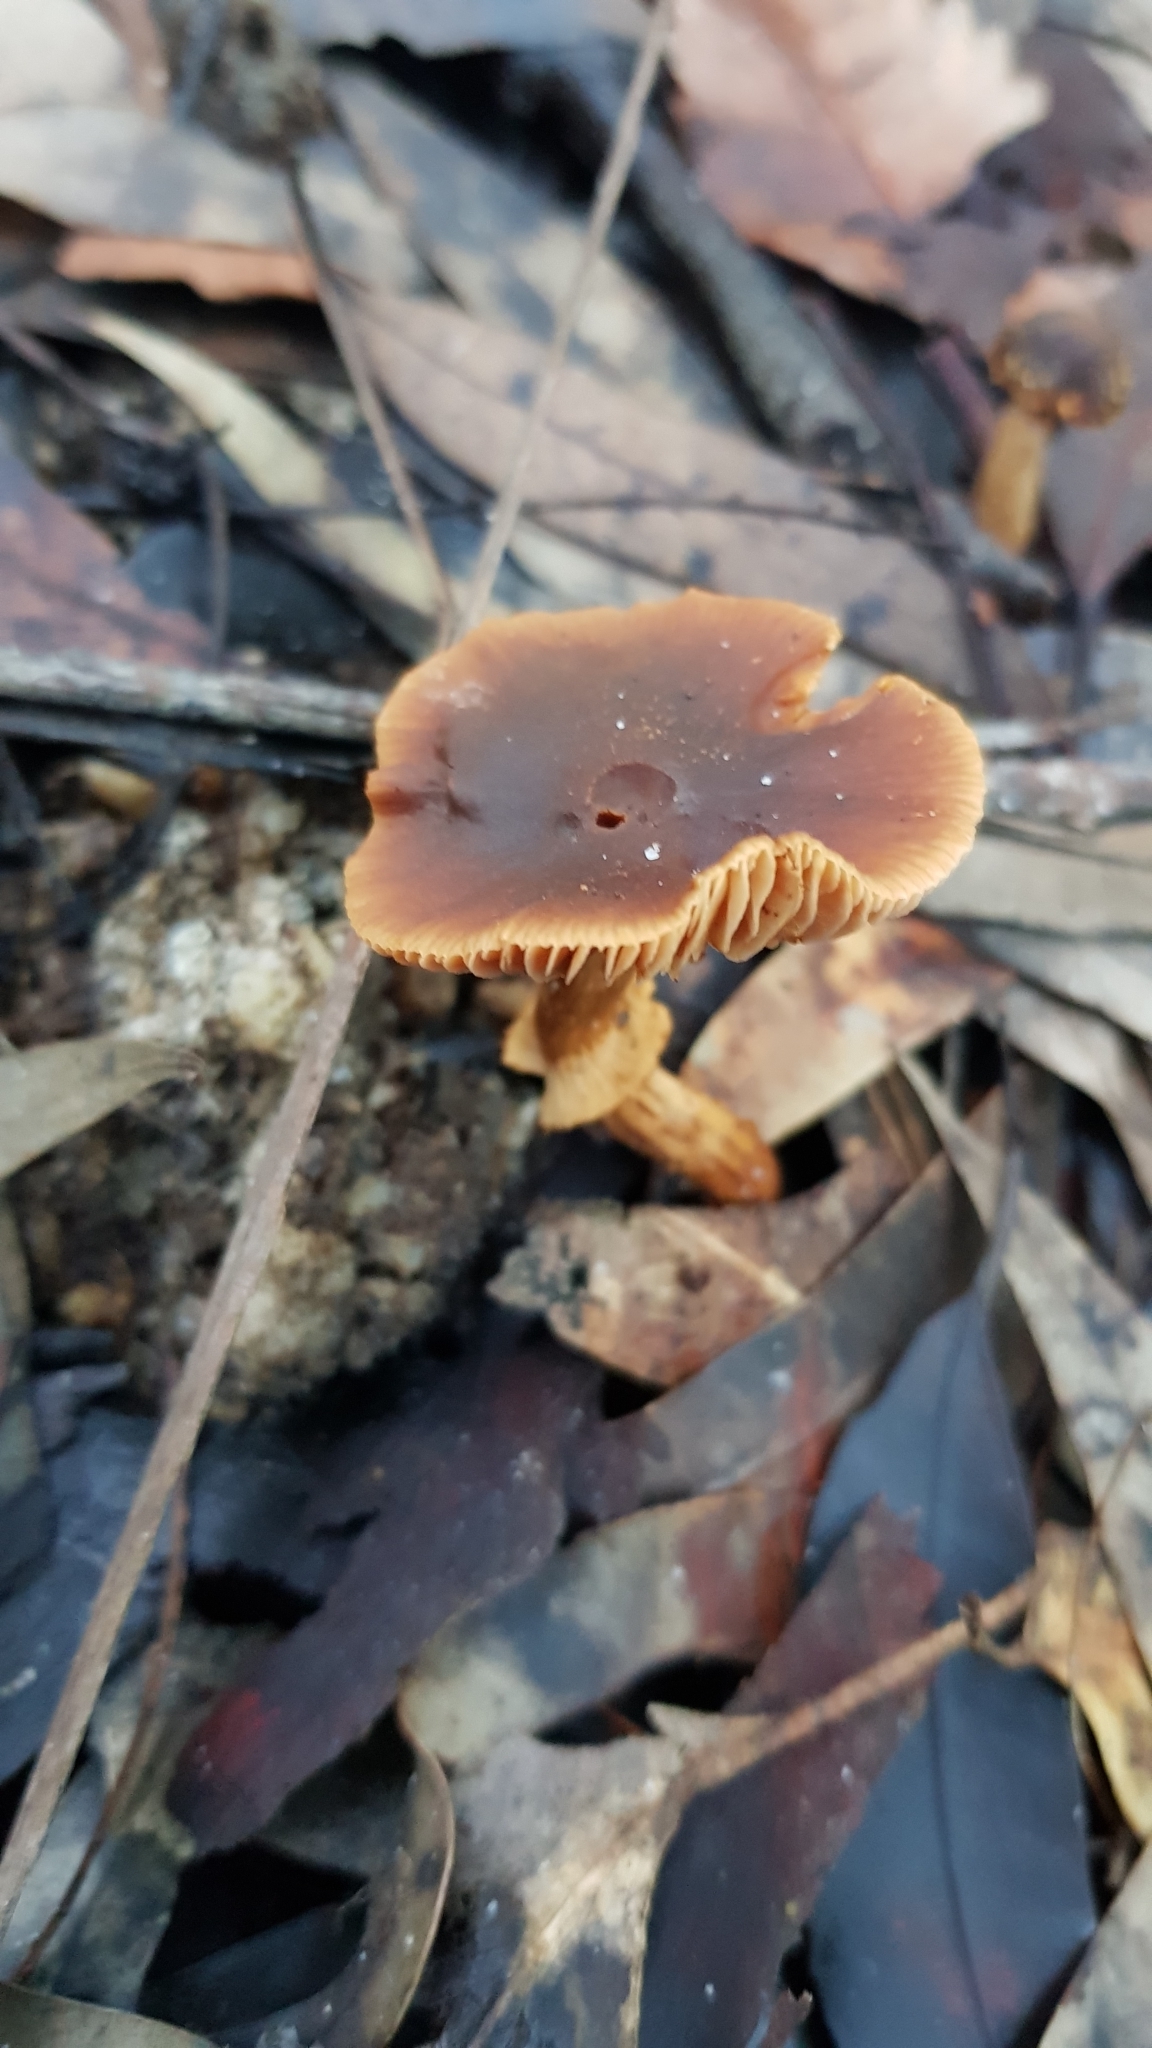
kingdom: Fungi
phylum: Basidiomycota
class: Agaricomycetes
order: Agaricales
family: Bolbitiaceae
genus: Descolea
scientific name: Descolea recedens
